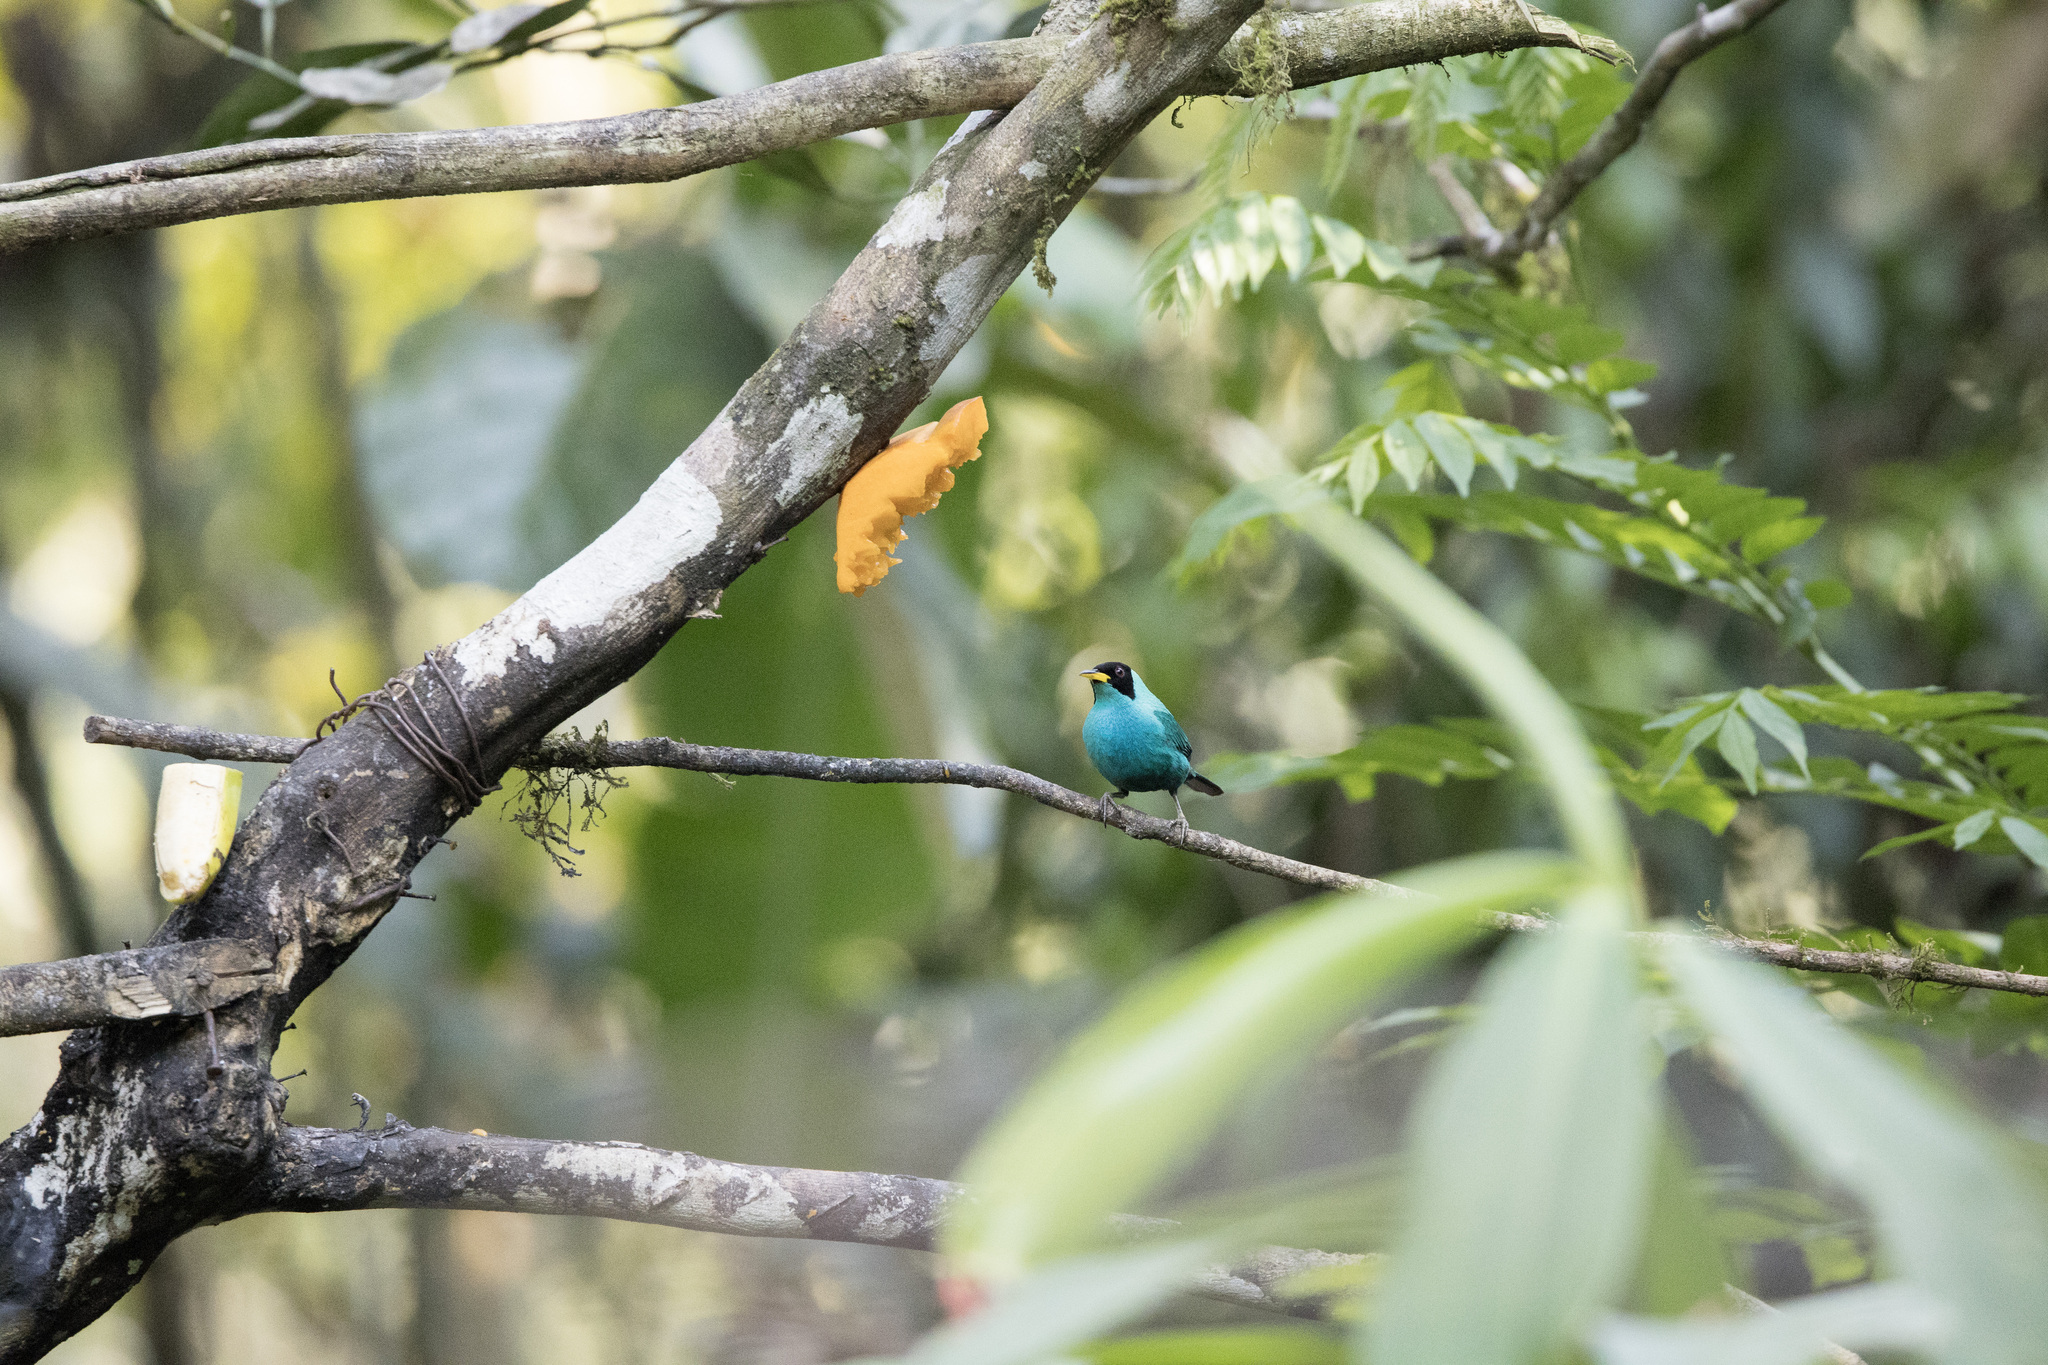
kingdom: Animalia
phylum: Chordata
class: Aves
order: Passeriformes
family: Thraupidae
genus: Chlorophanes
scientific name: Chlorophanes spiza
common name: Green honeycreeper
